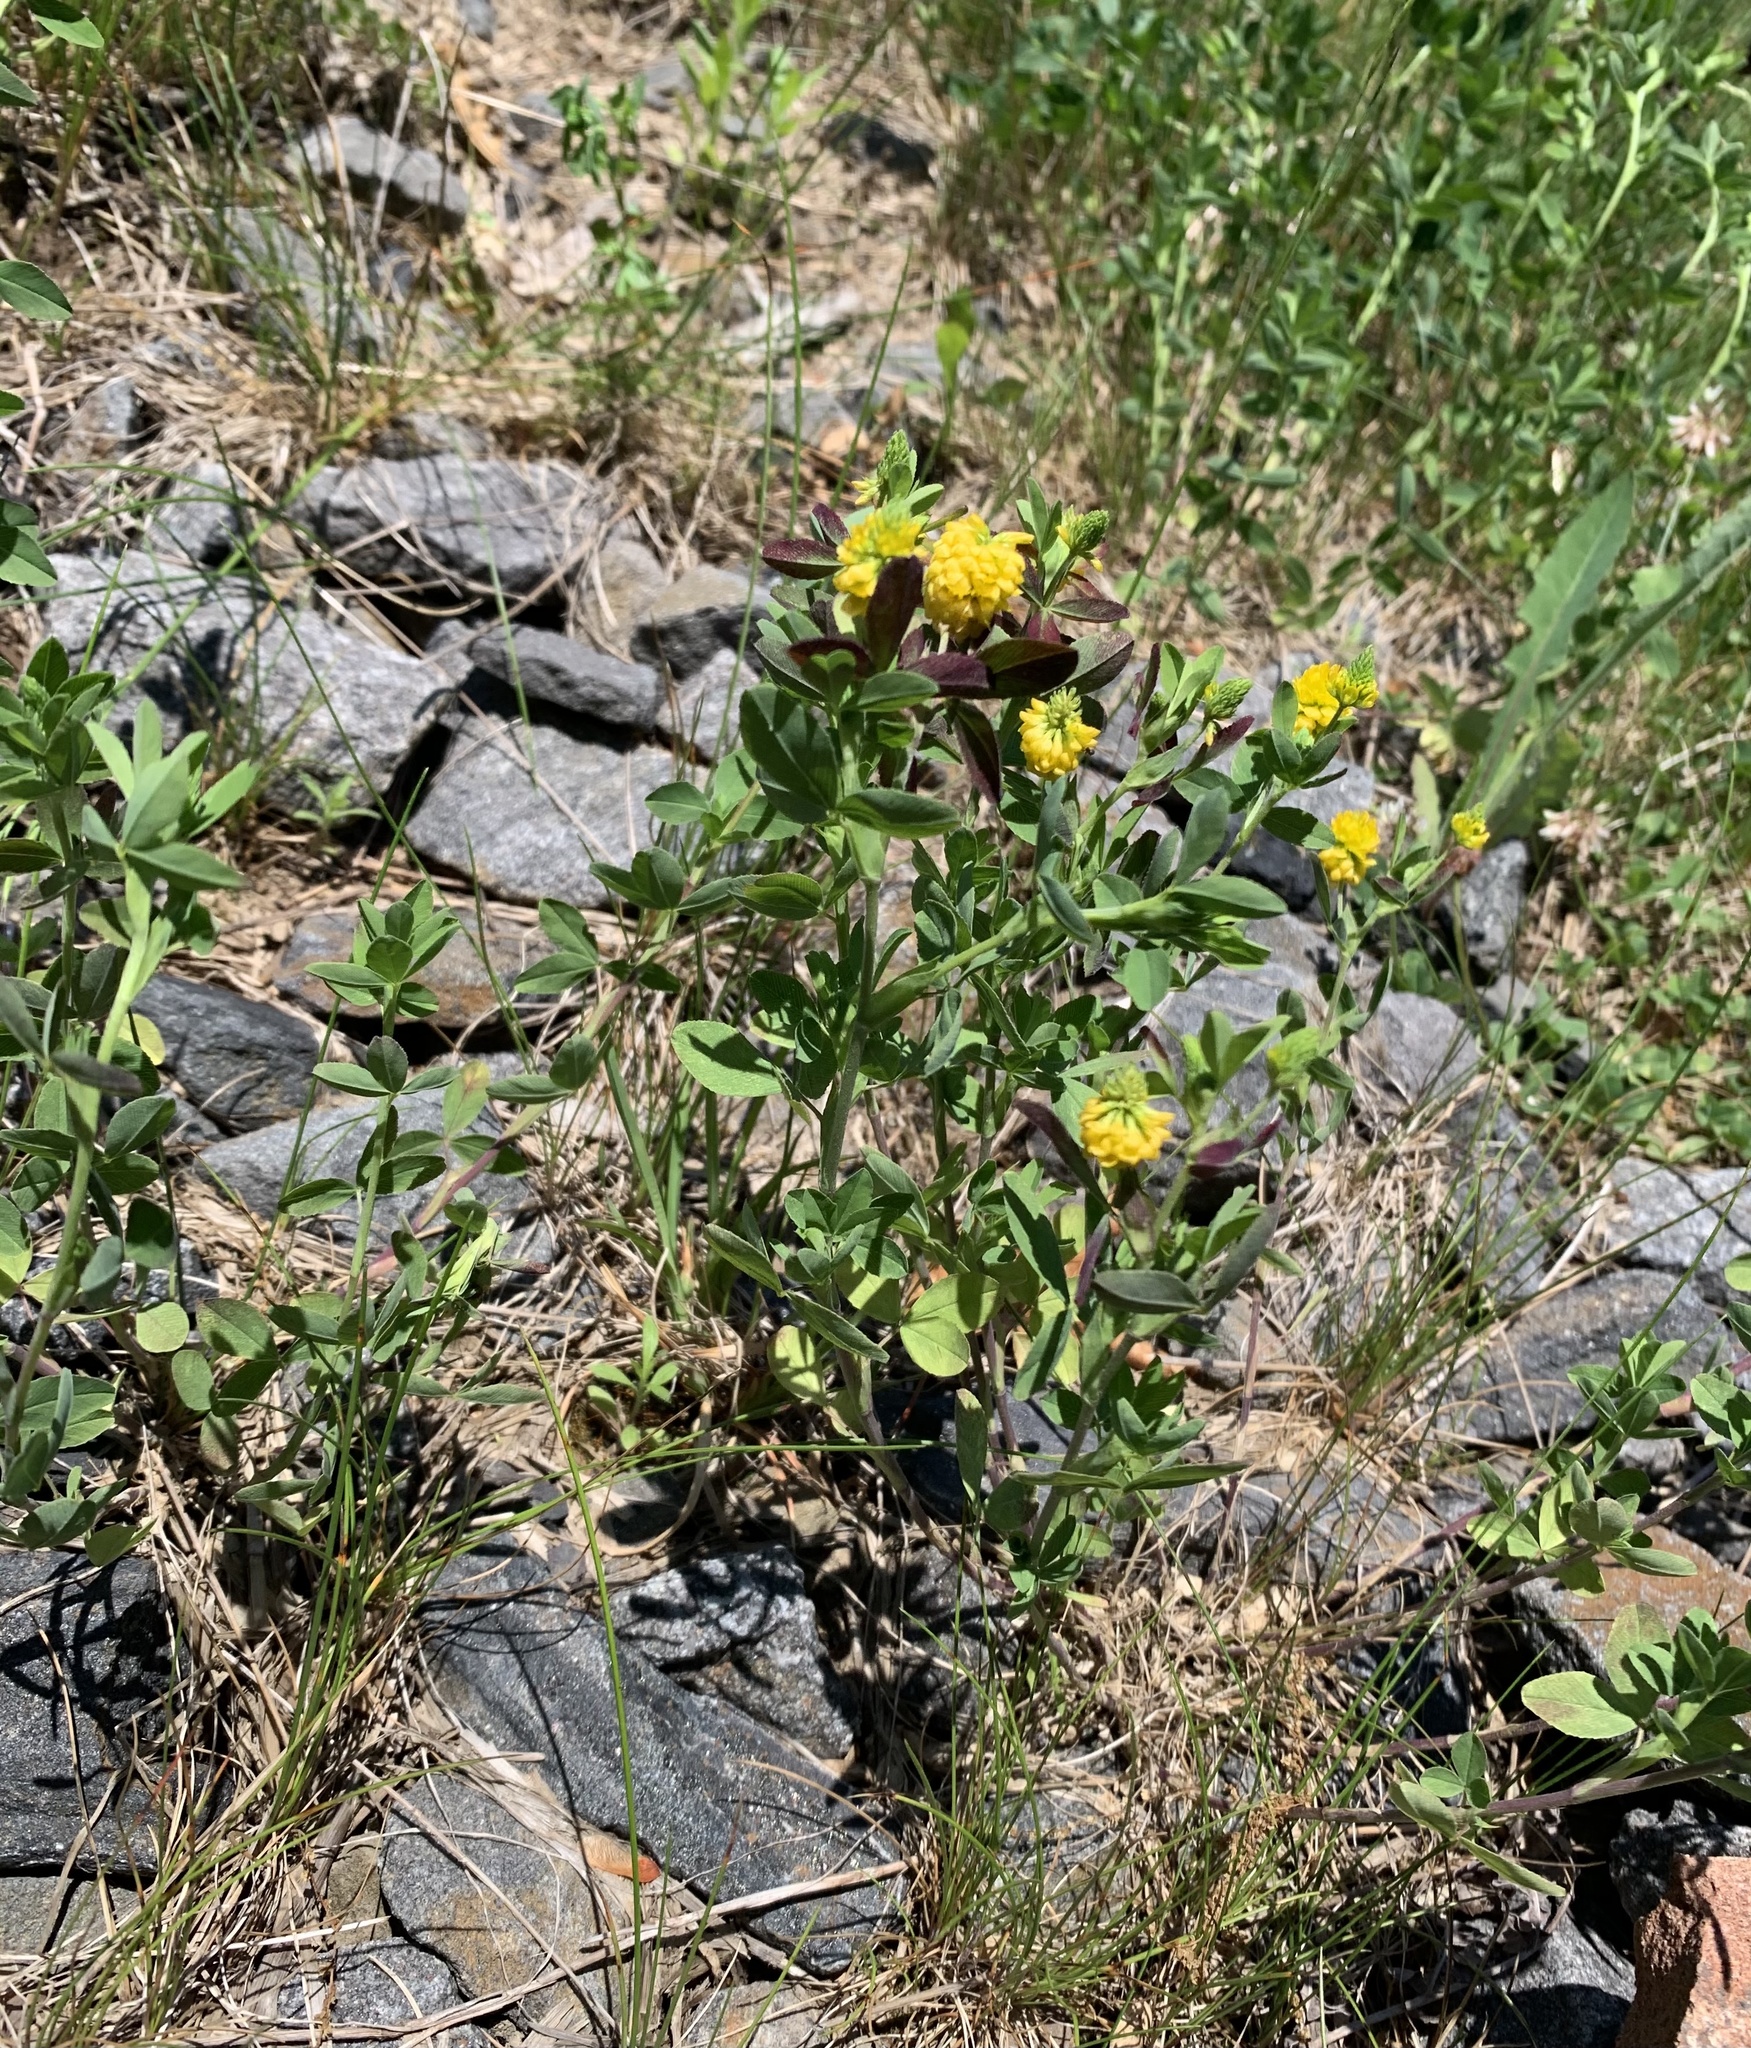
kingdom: Plantae
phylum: Tracheophyta
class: Magnoliopsida
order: Fabales
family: Fabaceae
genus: Trifolium
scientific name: Trifolium aureum
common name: Golden clover
